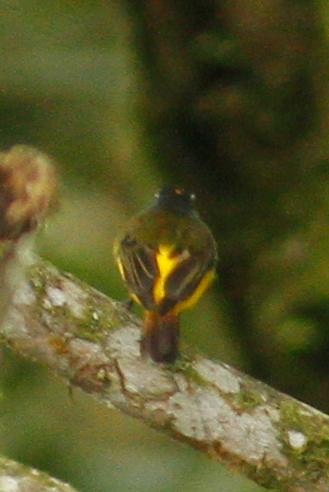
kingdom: Animalia
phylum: Chordata
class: Aves
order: Passeriformes
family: Tyrannidae
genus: Myiotriccus
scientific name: Myiotriccus ornatus
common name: Ornate flycatcher
